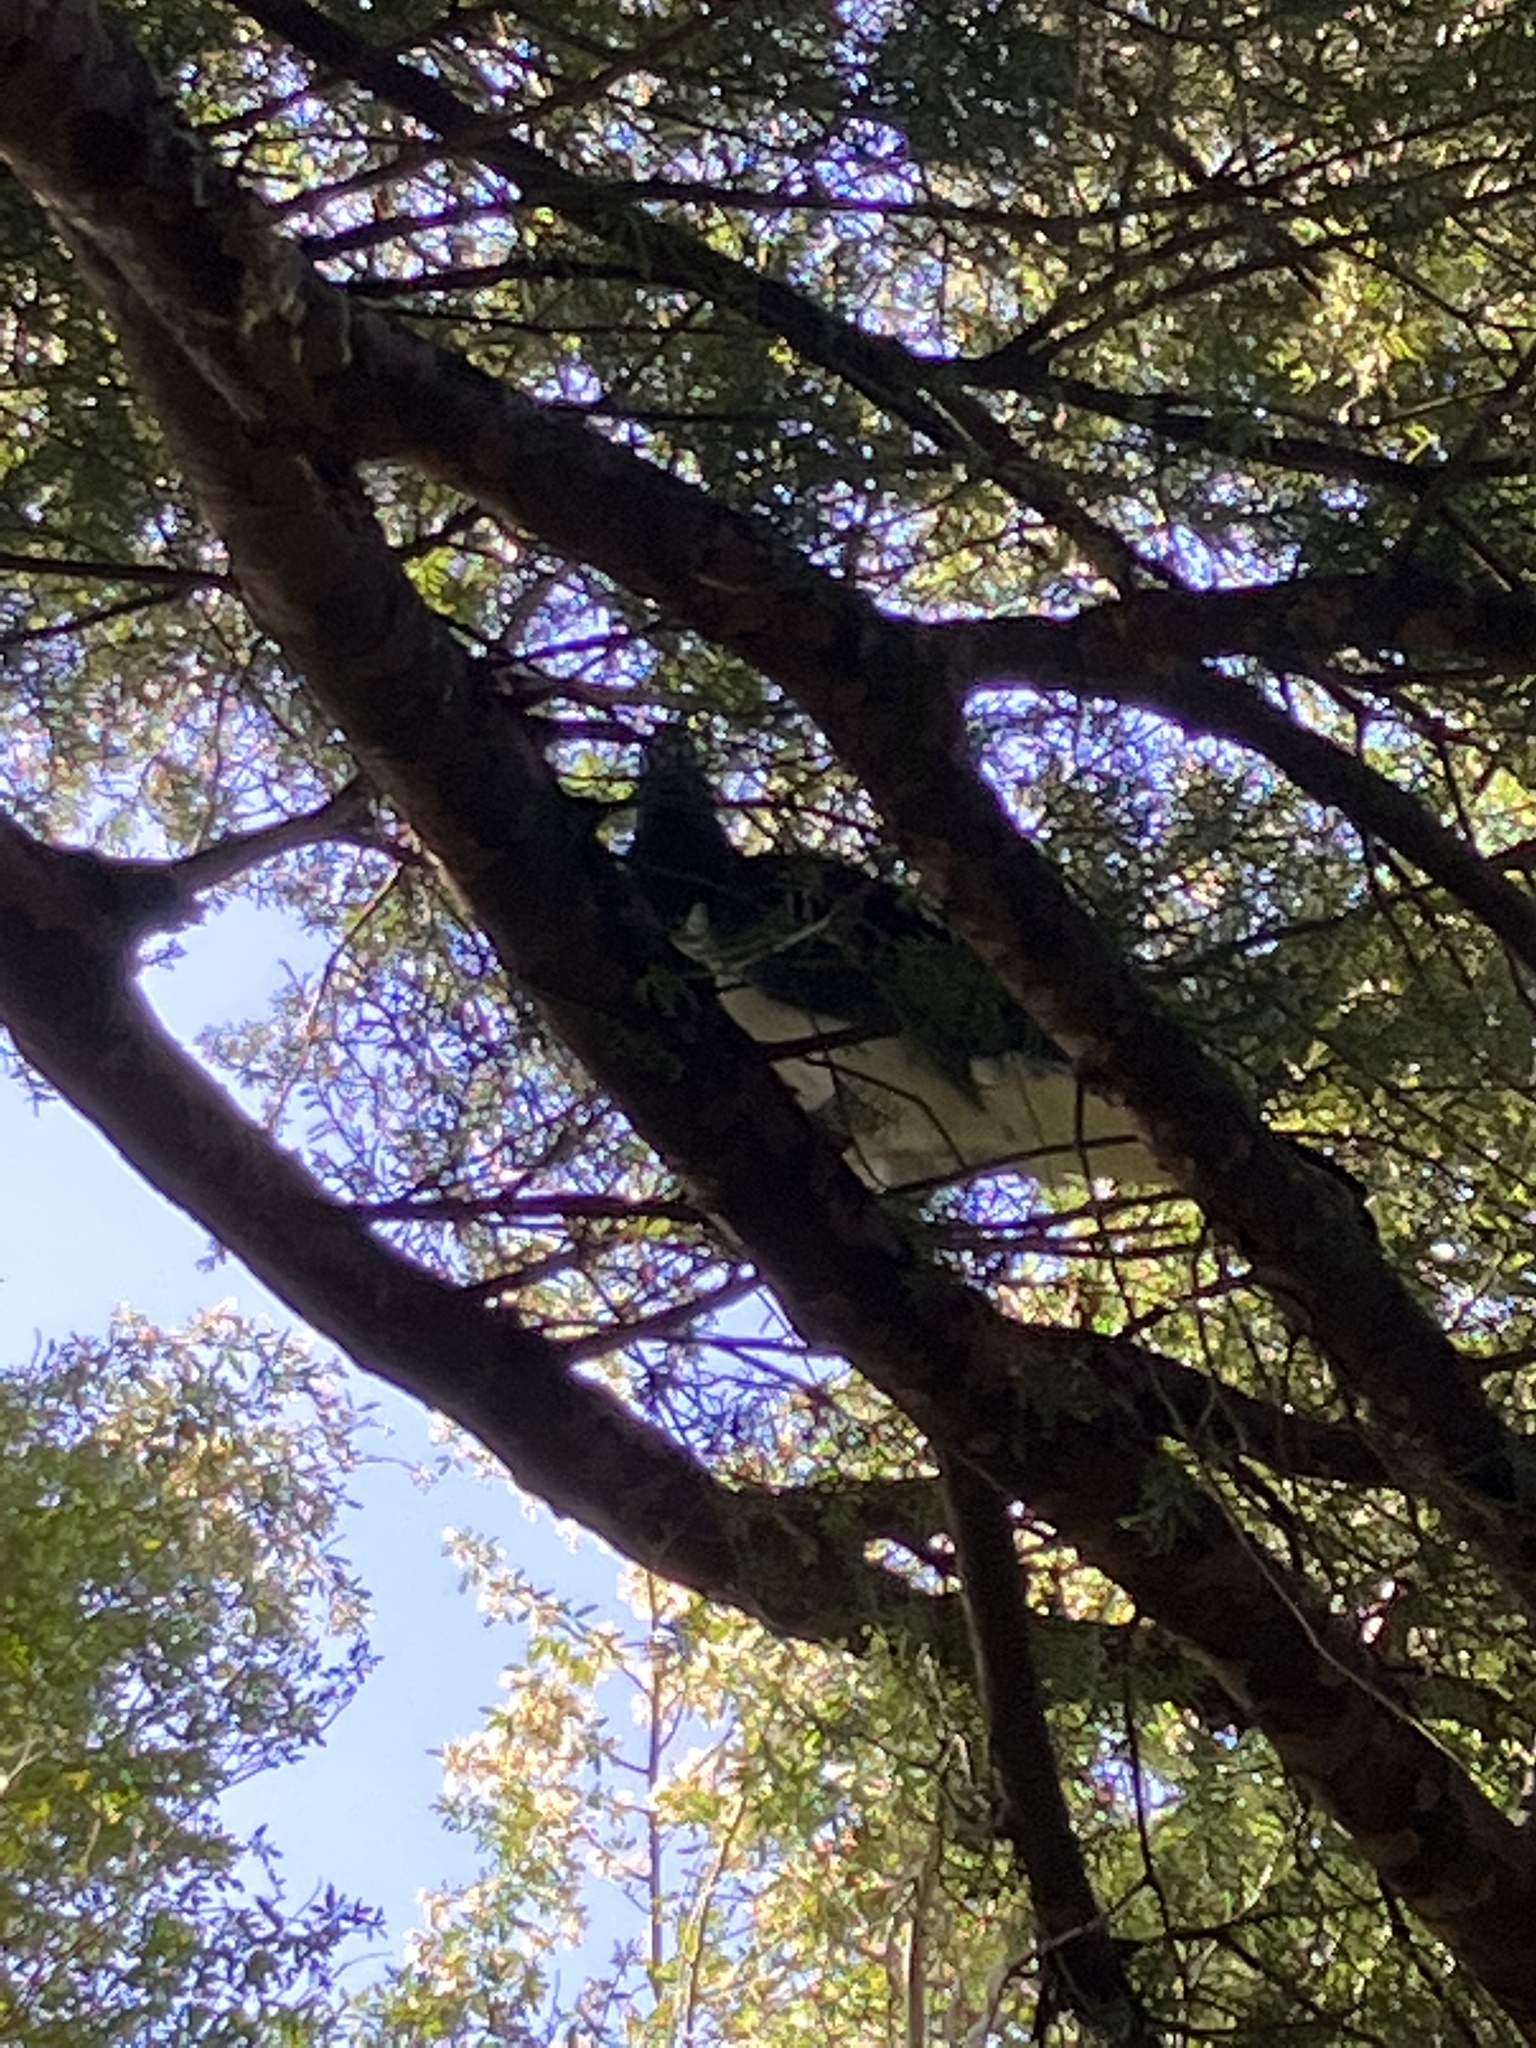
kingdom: Animalia
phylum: Chordata
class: Aves
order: Columbiformes
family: Columbidae
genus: Hemiphaga
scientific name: Hemiphaga novaeseelandiae
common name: New zealand pigeon
